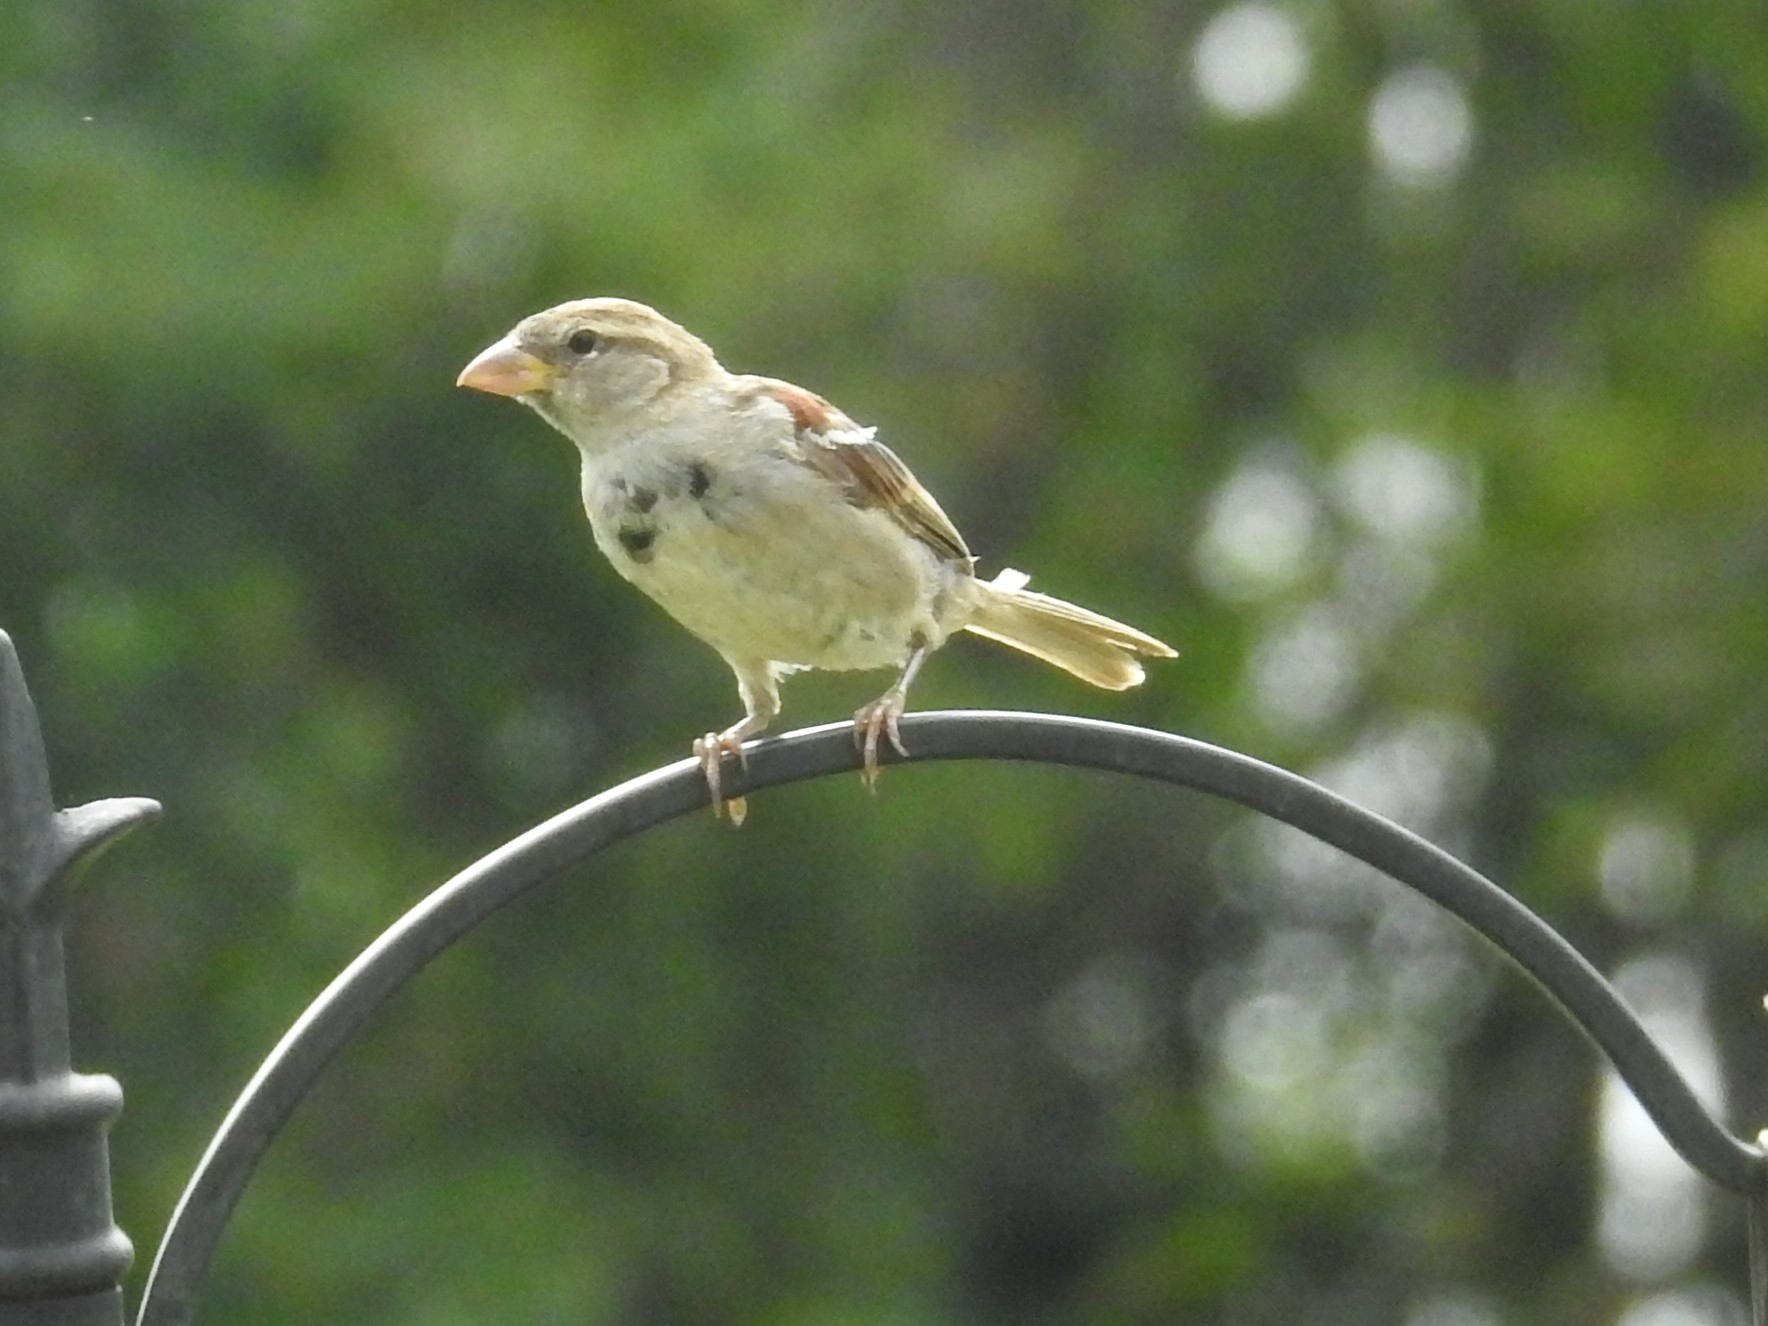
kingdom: Animalia
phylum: Chordata
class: Aves
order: Passeriformes
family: Passeridae
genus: Passer
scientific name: Passer domesticus
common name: House sparrow
